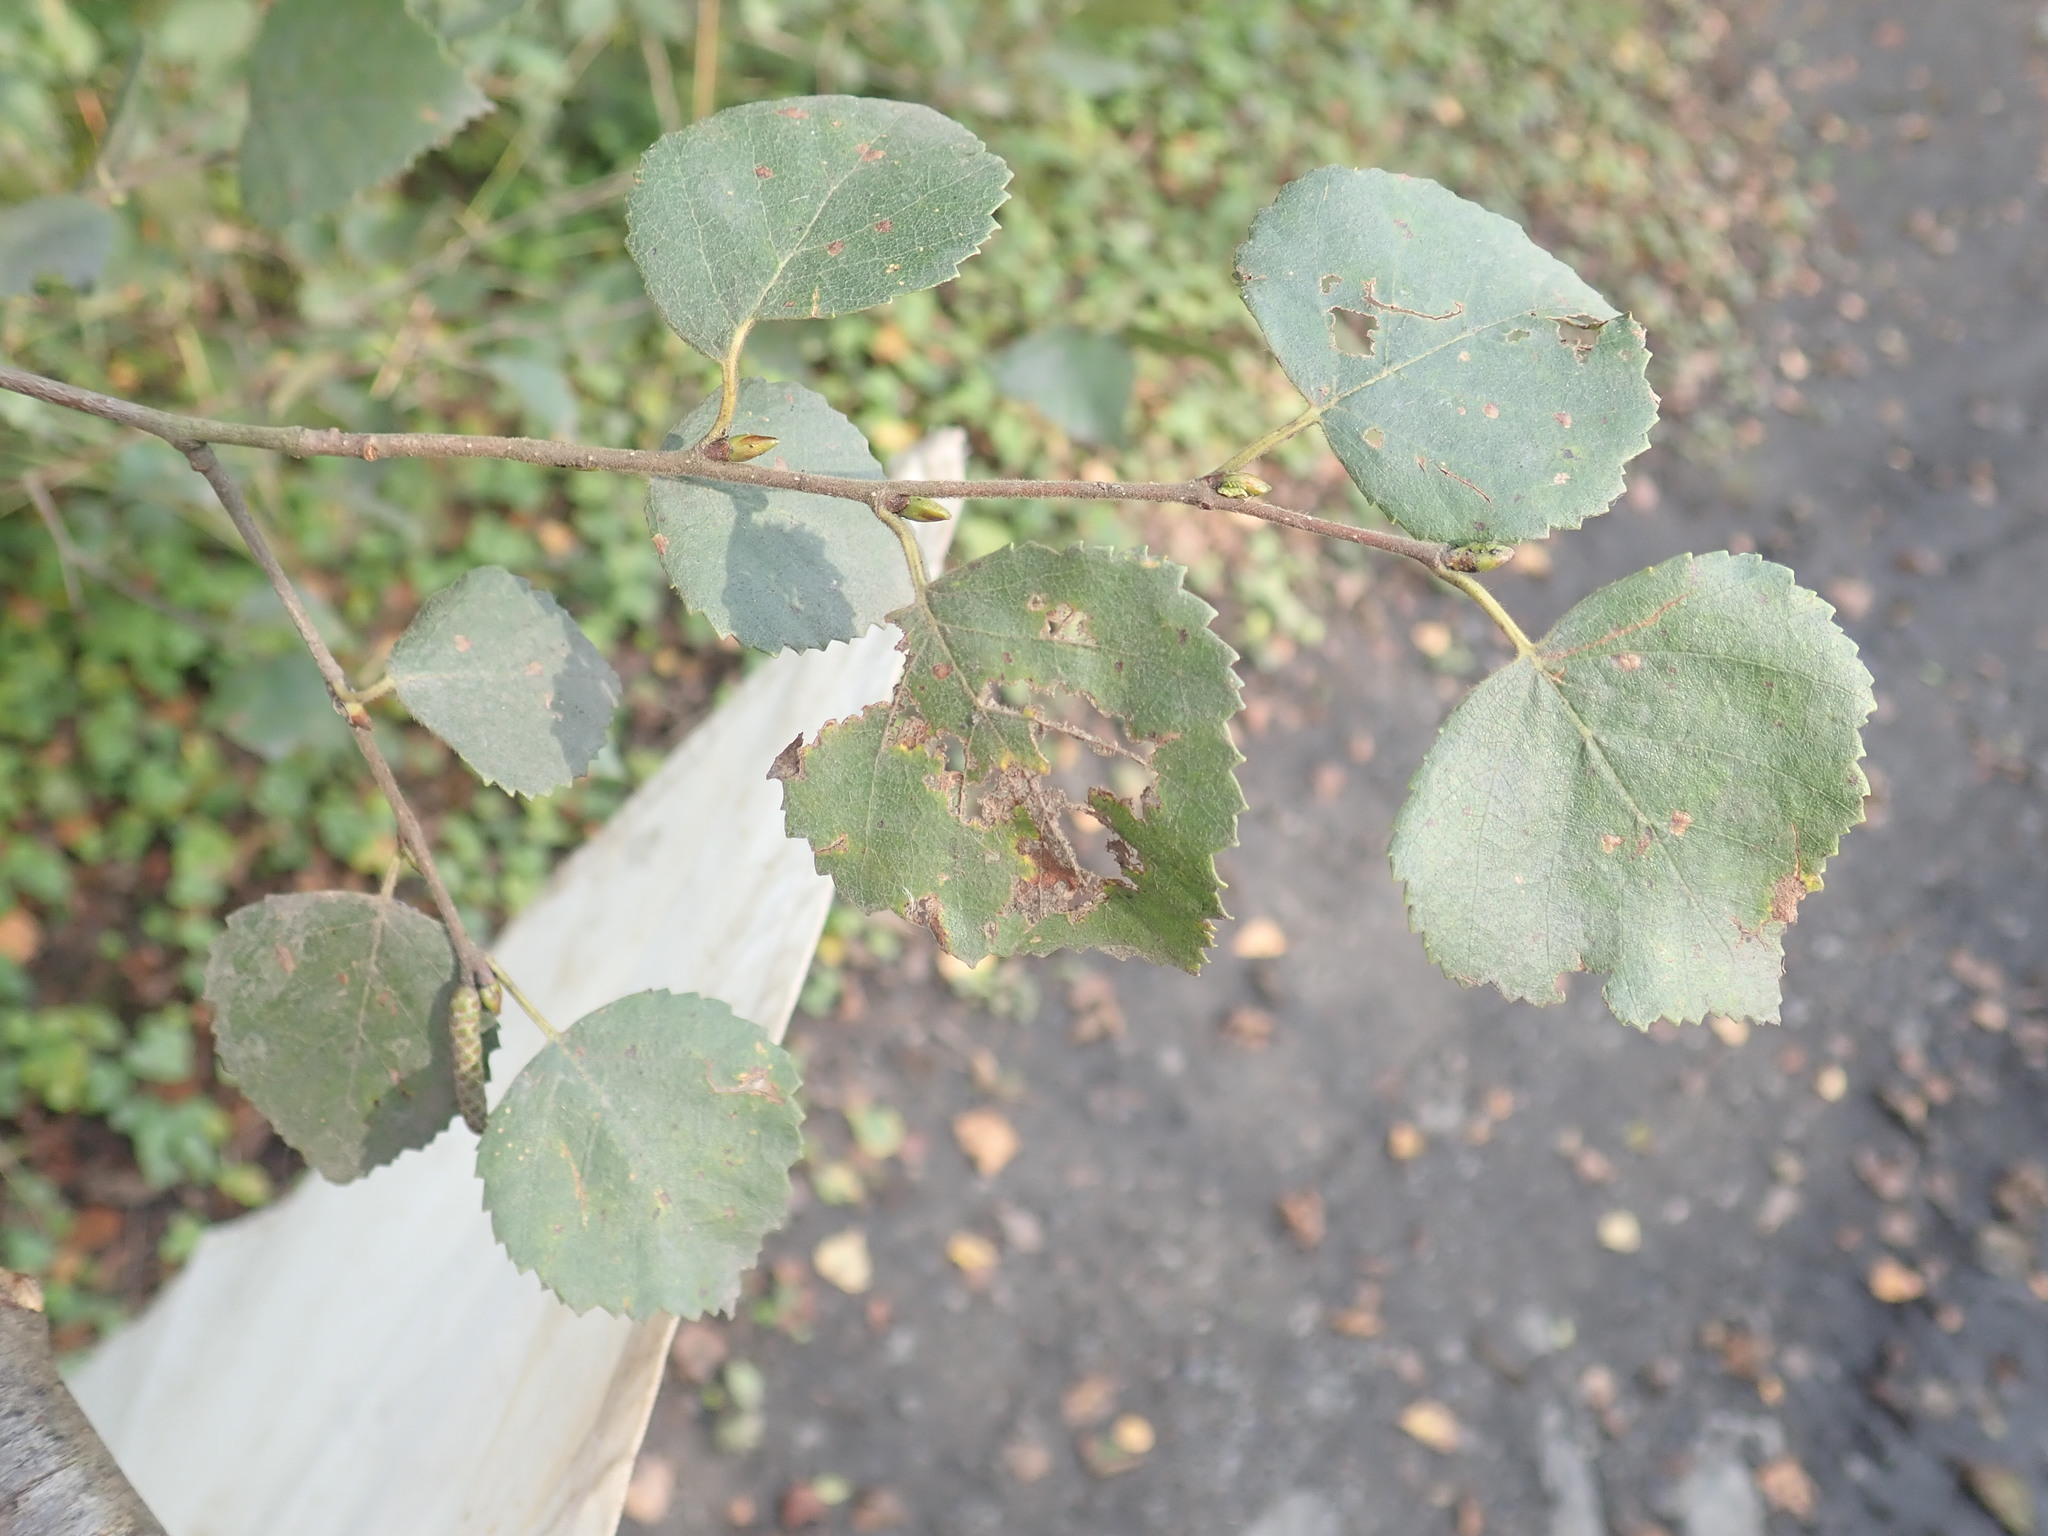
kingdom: Plantae
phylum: Tracheophyta
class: Magnoliopsida
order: Fagales
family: Betulaceae
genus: Betula
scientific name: Betula pubescens
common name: Downy birch
